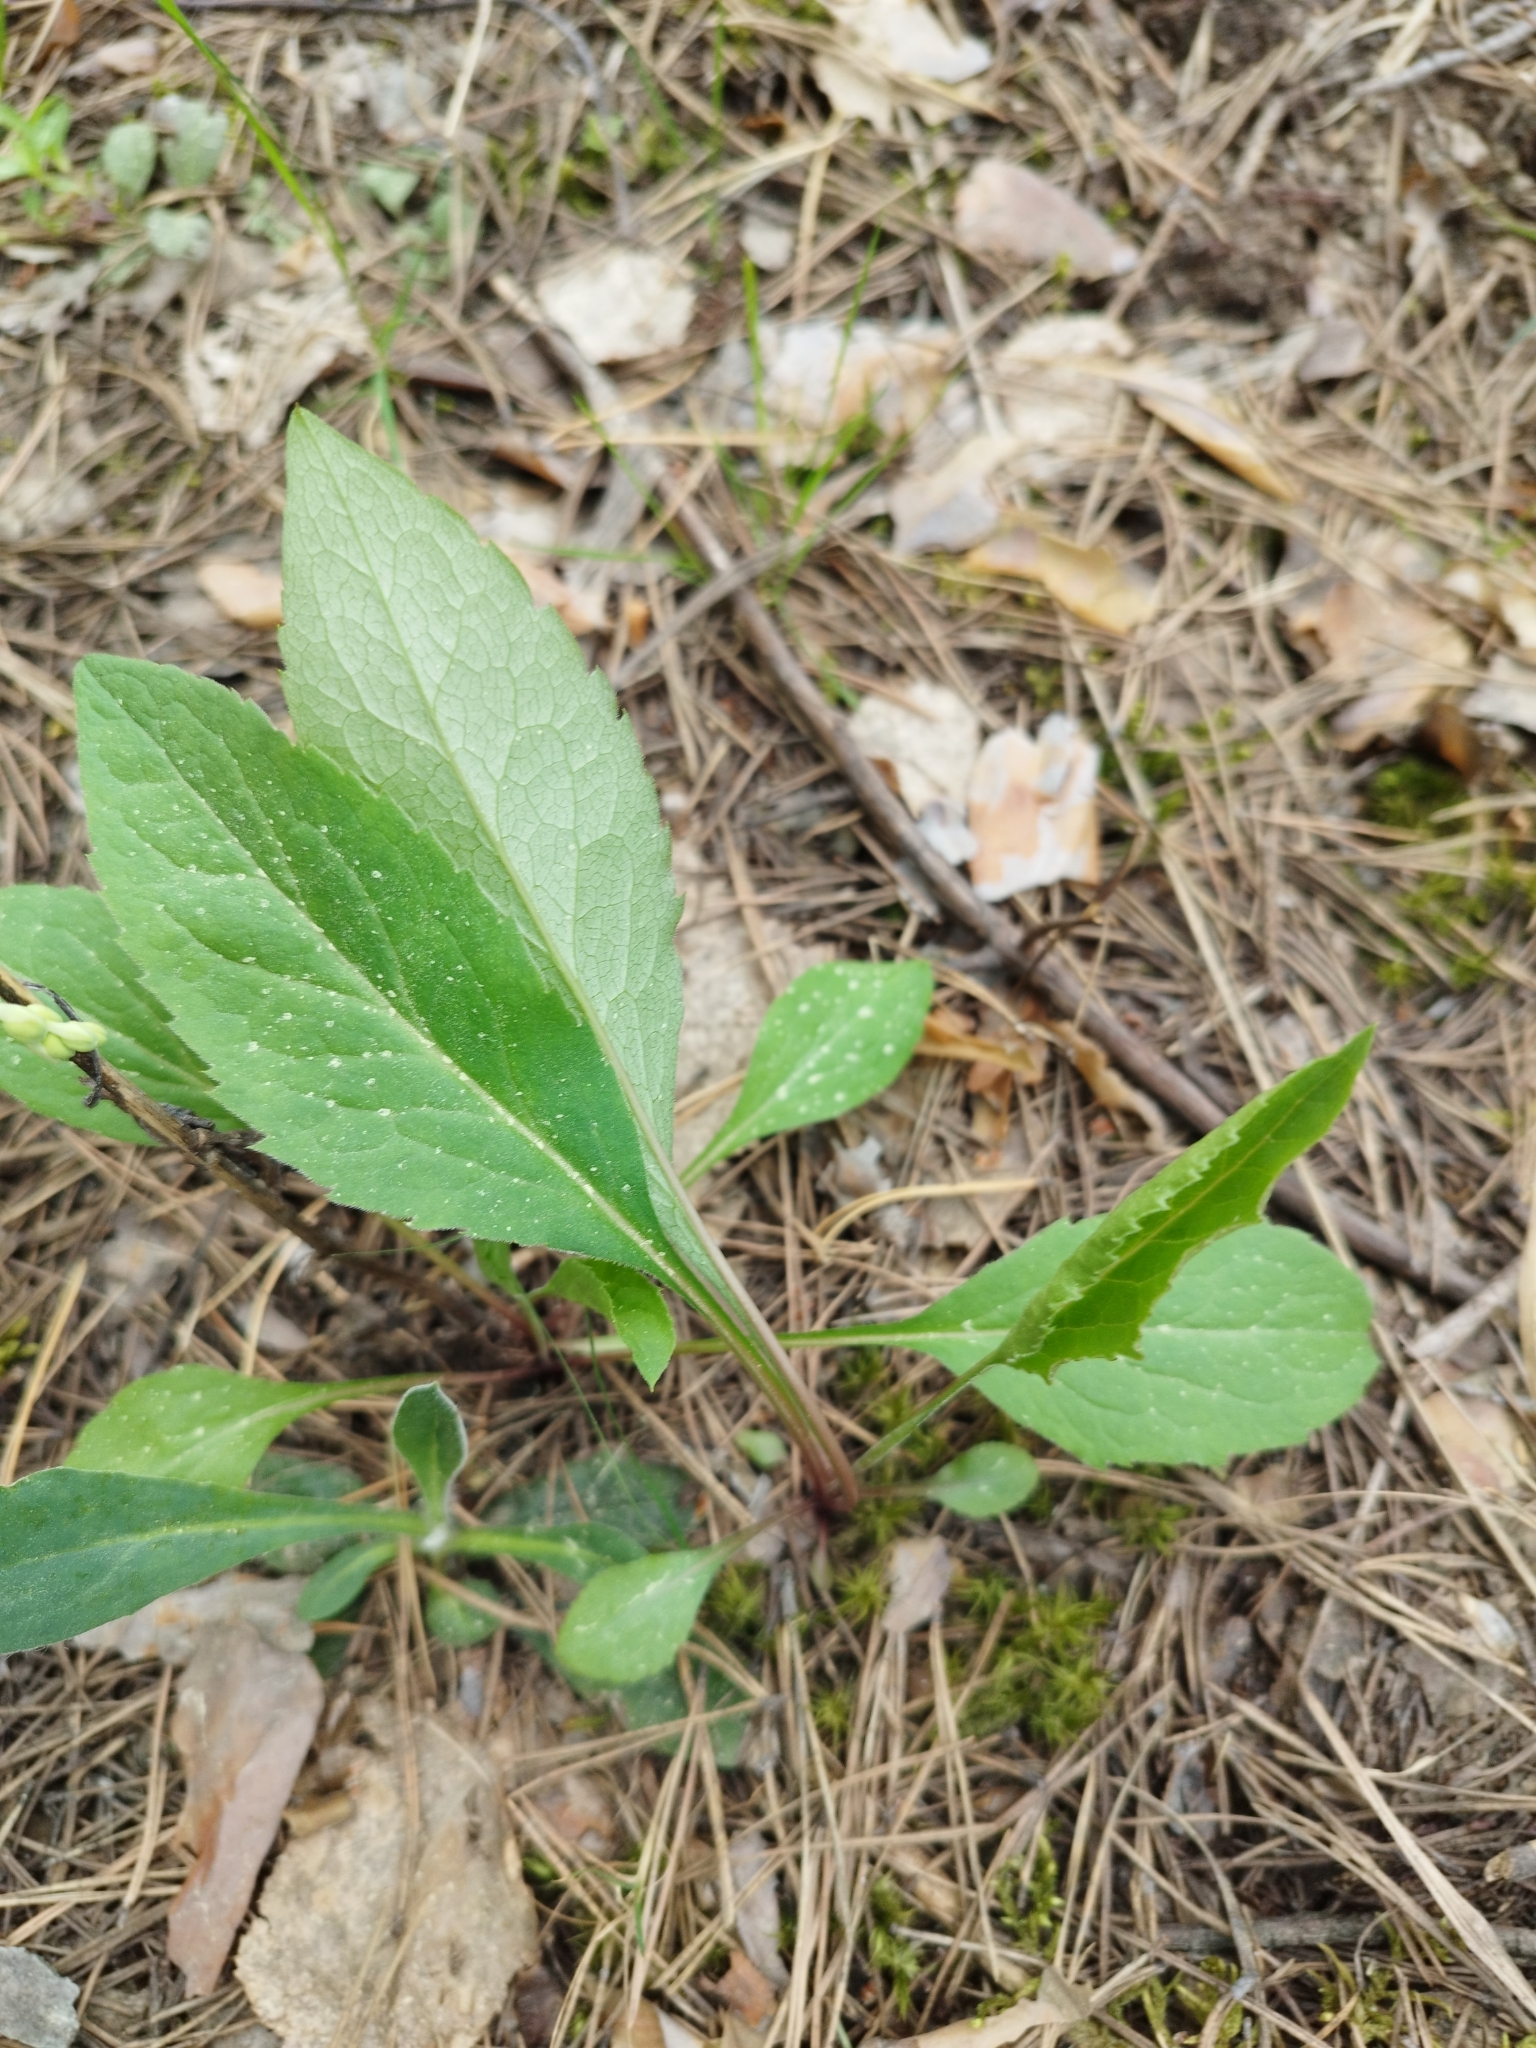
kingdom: Plantae
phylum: Tracheophyta
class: Magnoliopsida
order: Asterales
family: Asteraceae
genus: Solidago
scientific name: Solidago virgaurea
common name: Goldenrod
